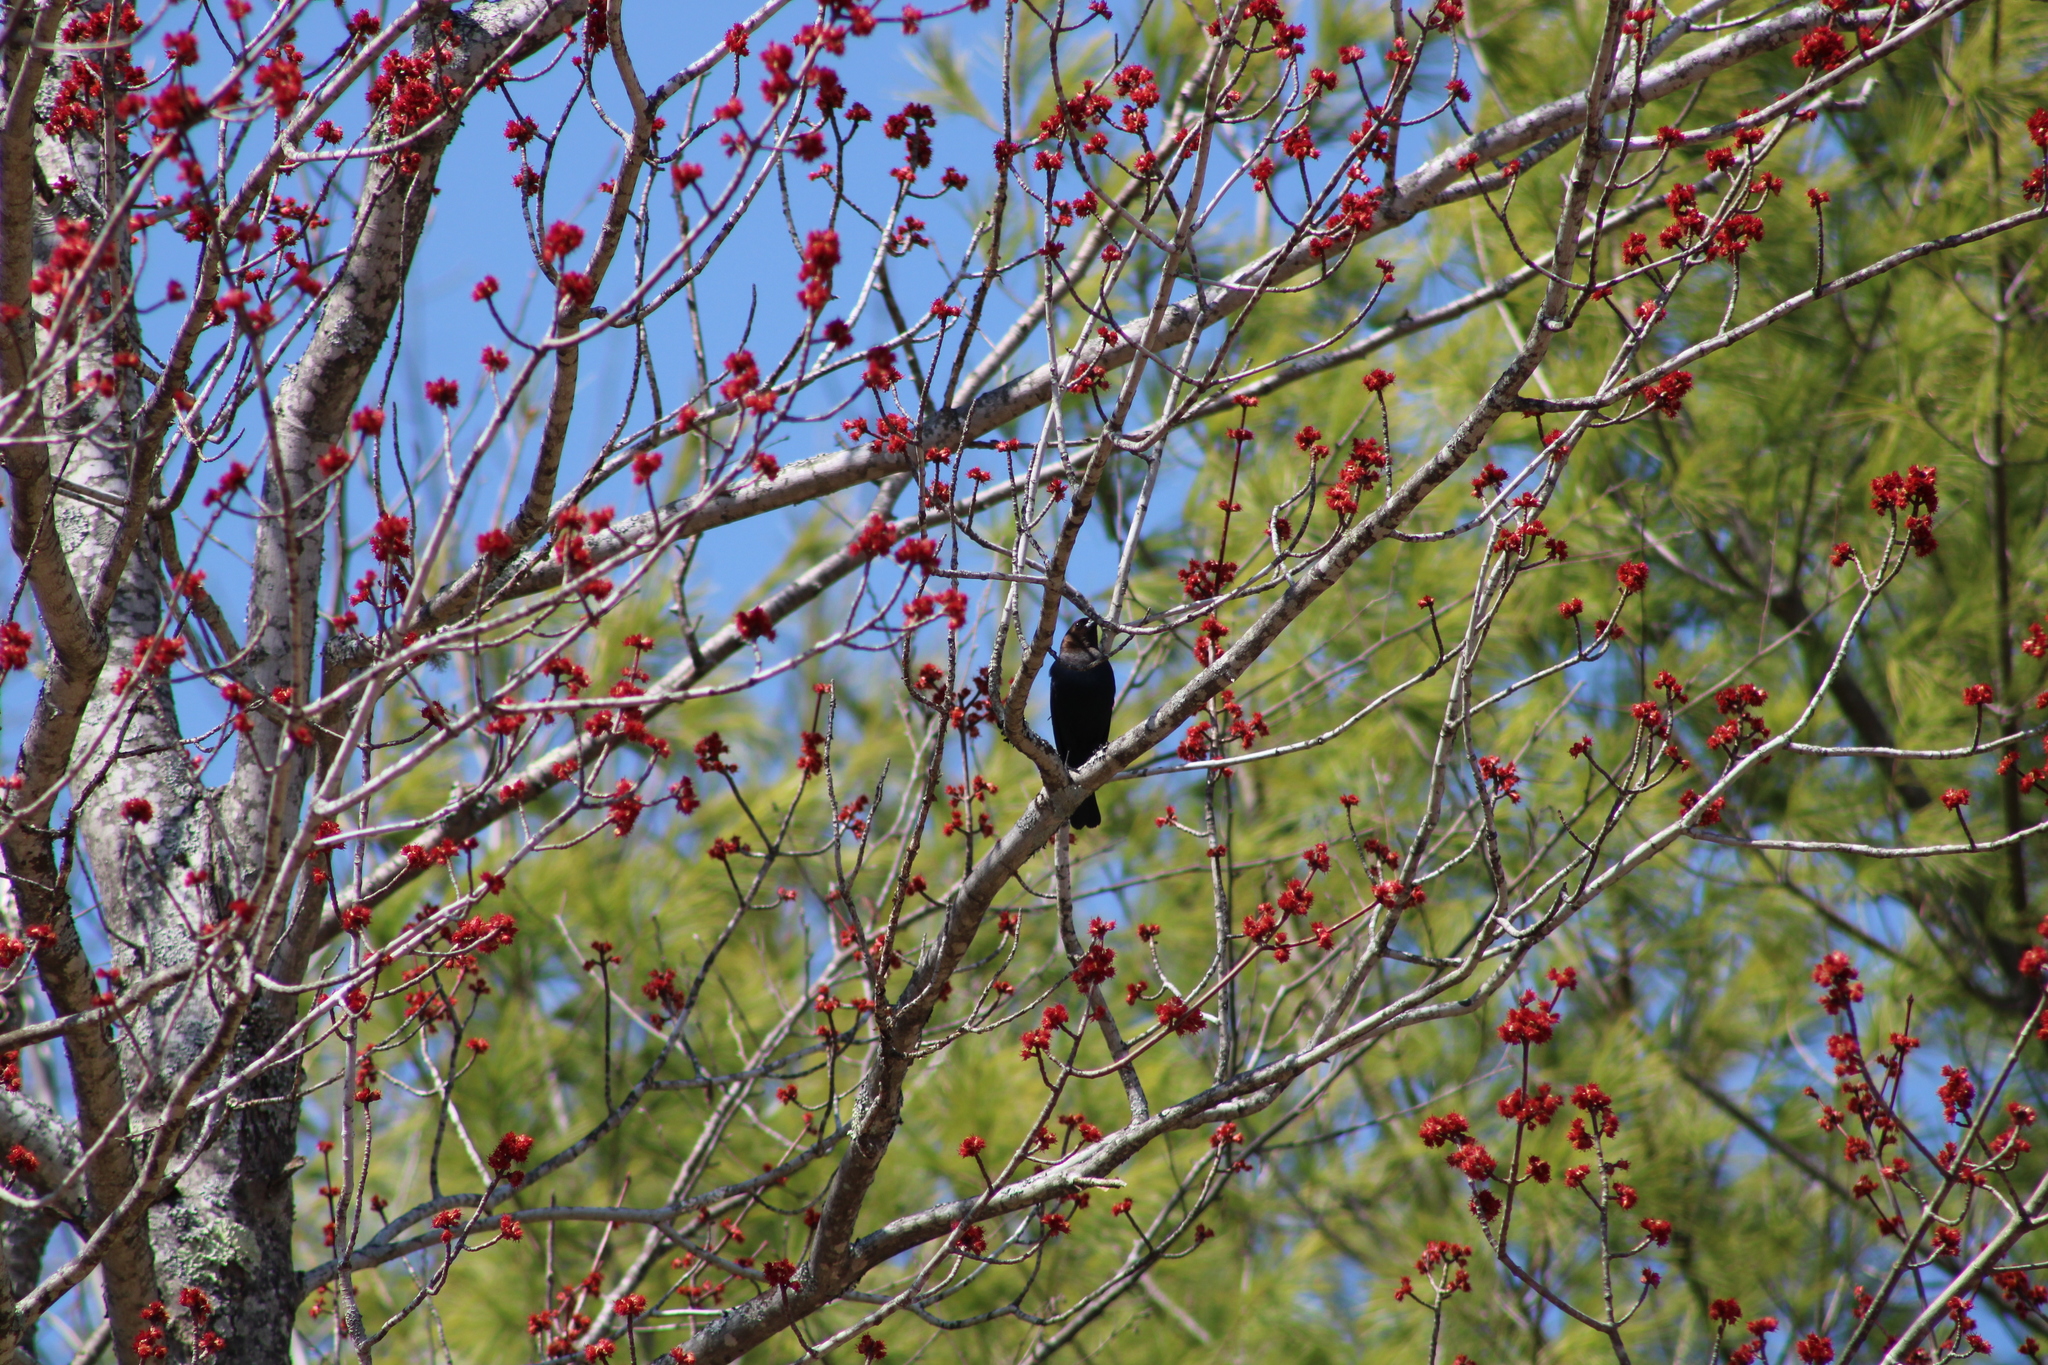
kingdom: Animalia
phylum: Chordata
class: Aves
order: Passeriformes
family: Icteridae
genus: Molothrus
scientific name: Molothrus ater
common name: Brown-headed cowbird
